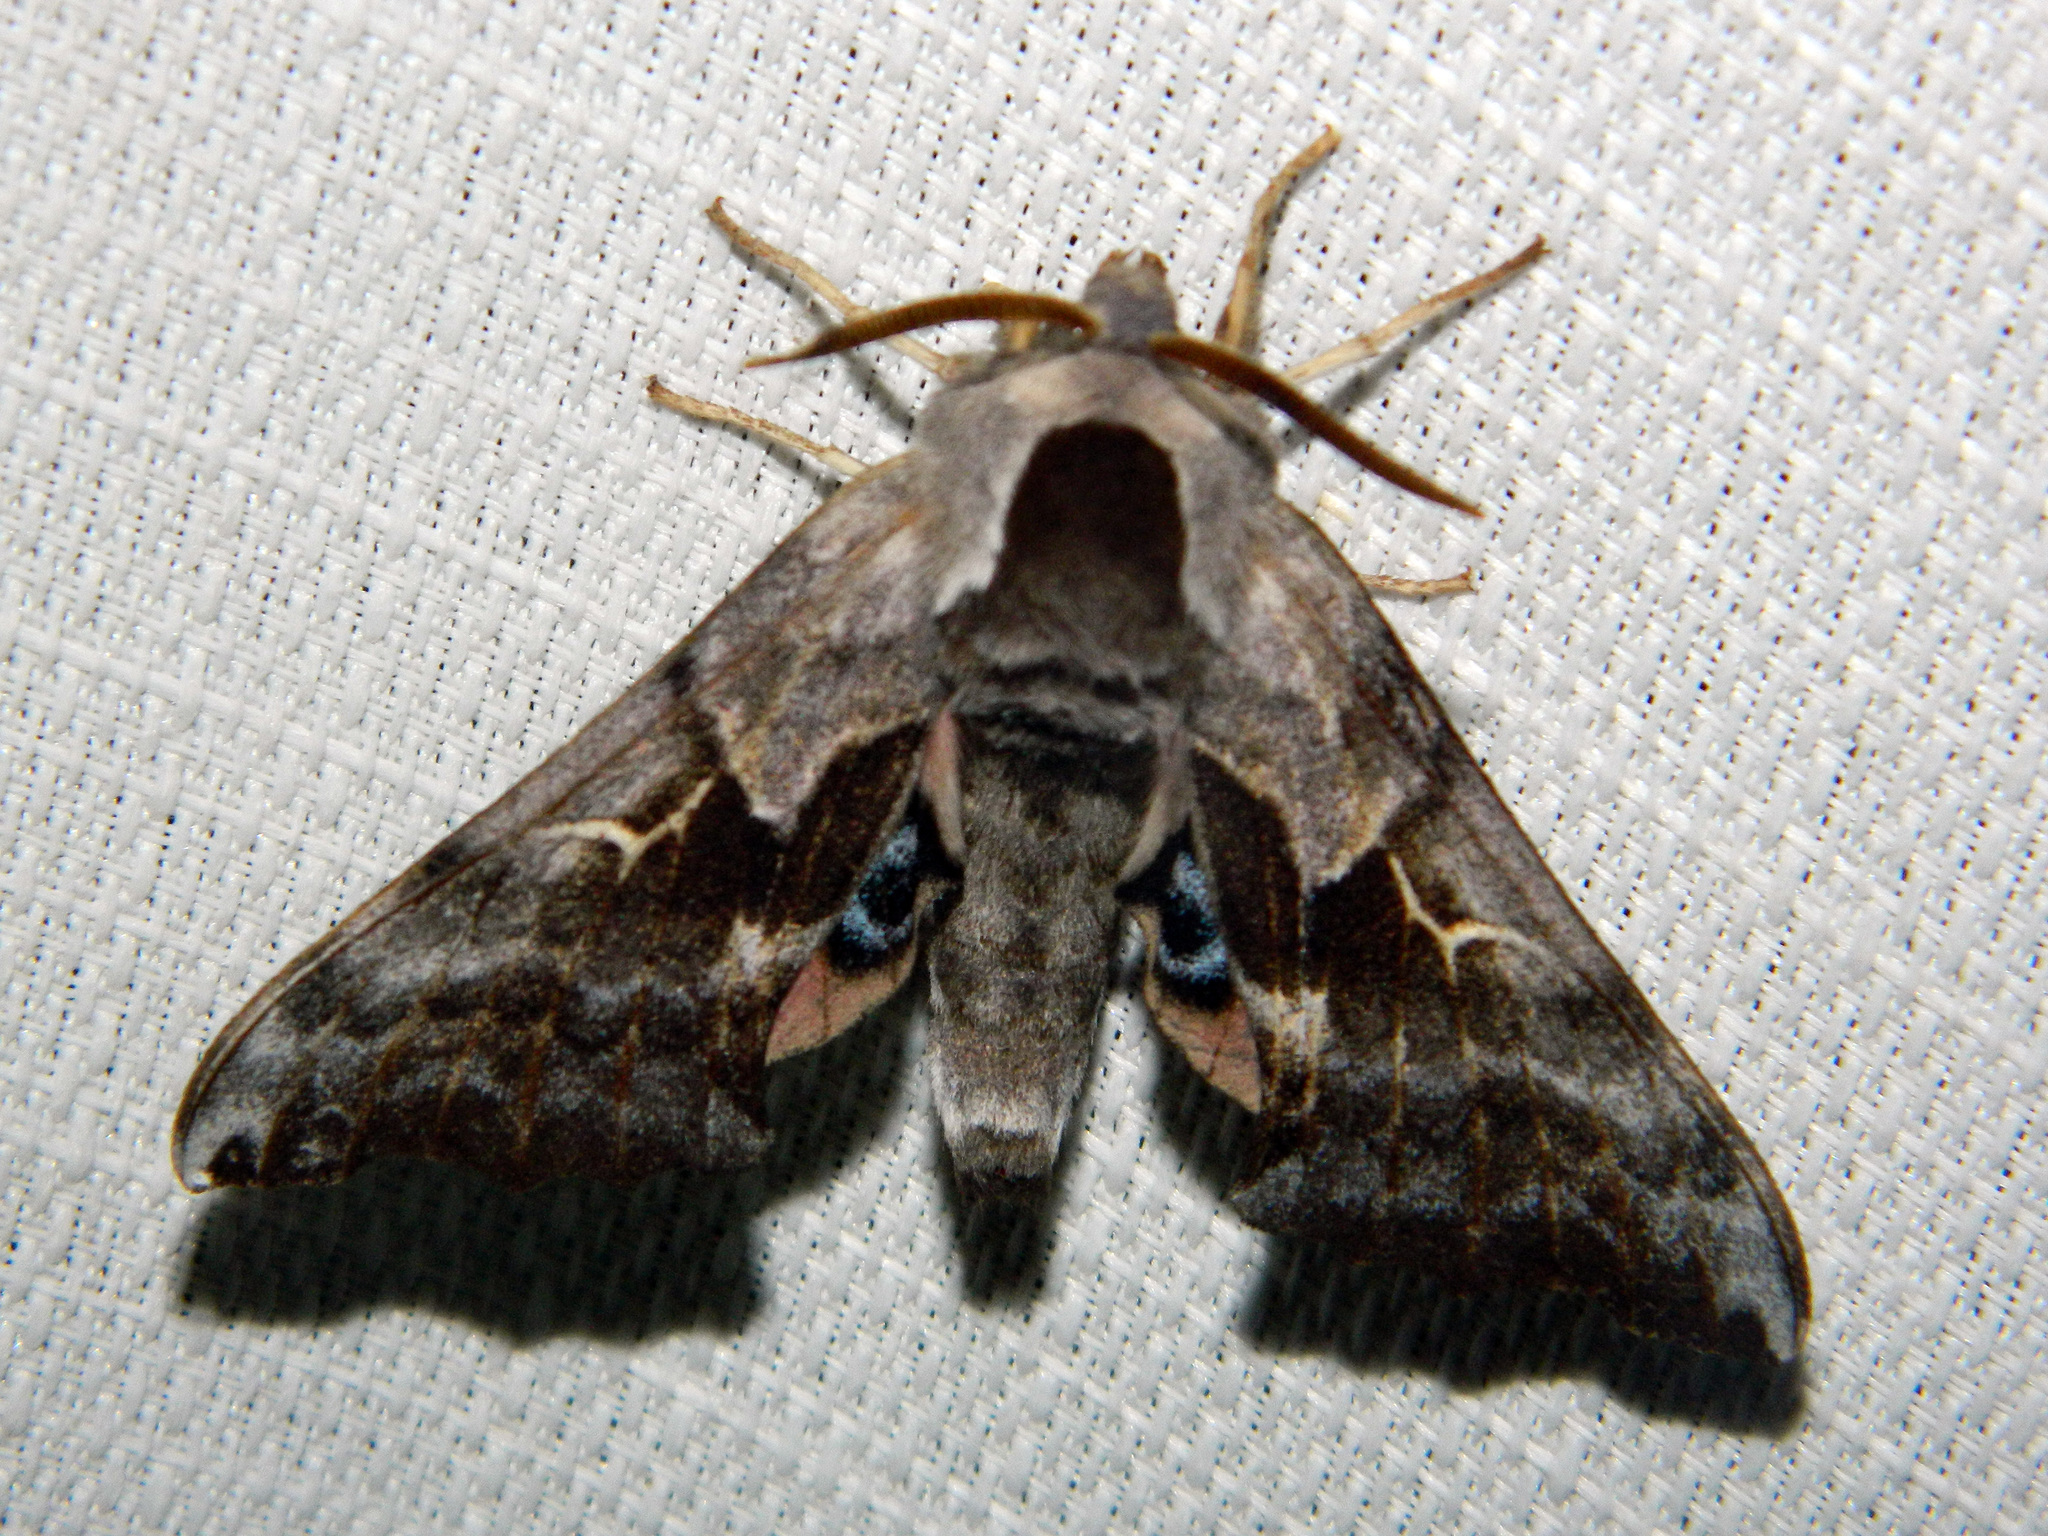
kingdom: Animalia
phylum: Arthropoda
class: Insecta
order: Lepidoptera
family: Sphingidae
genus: Smerinthus
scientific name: Smerinthus cerisyi
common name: Cerisy's sphinx moth
